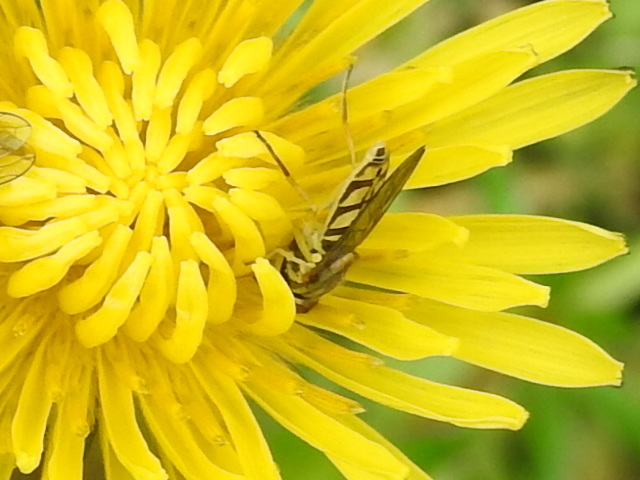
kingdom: Animalia
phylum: Arthropoda
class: Insecta
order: Diptera
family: Syrphidae
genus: Toxomerus
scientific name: Toxomerus marginatus
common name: Syrphid fly
